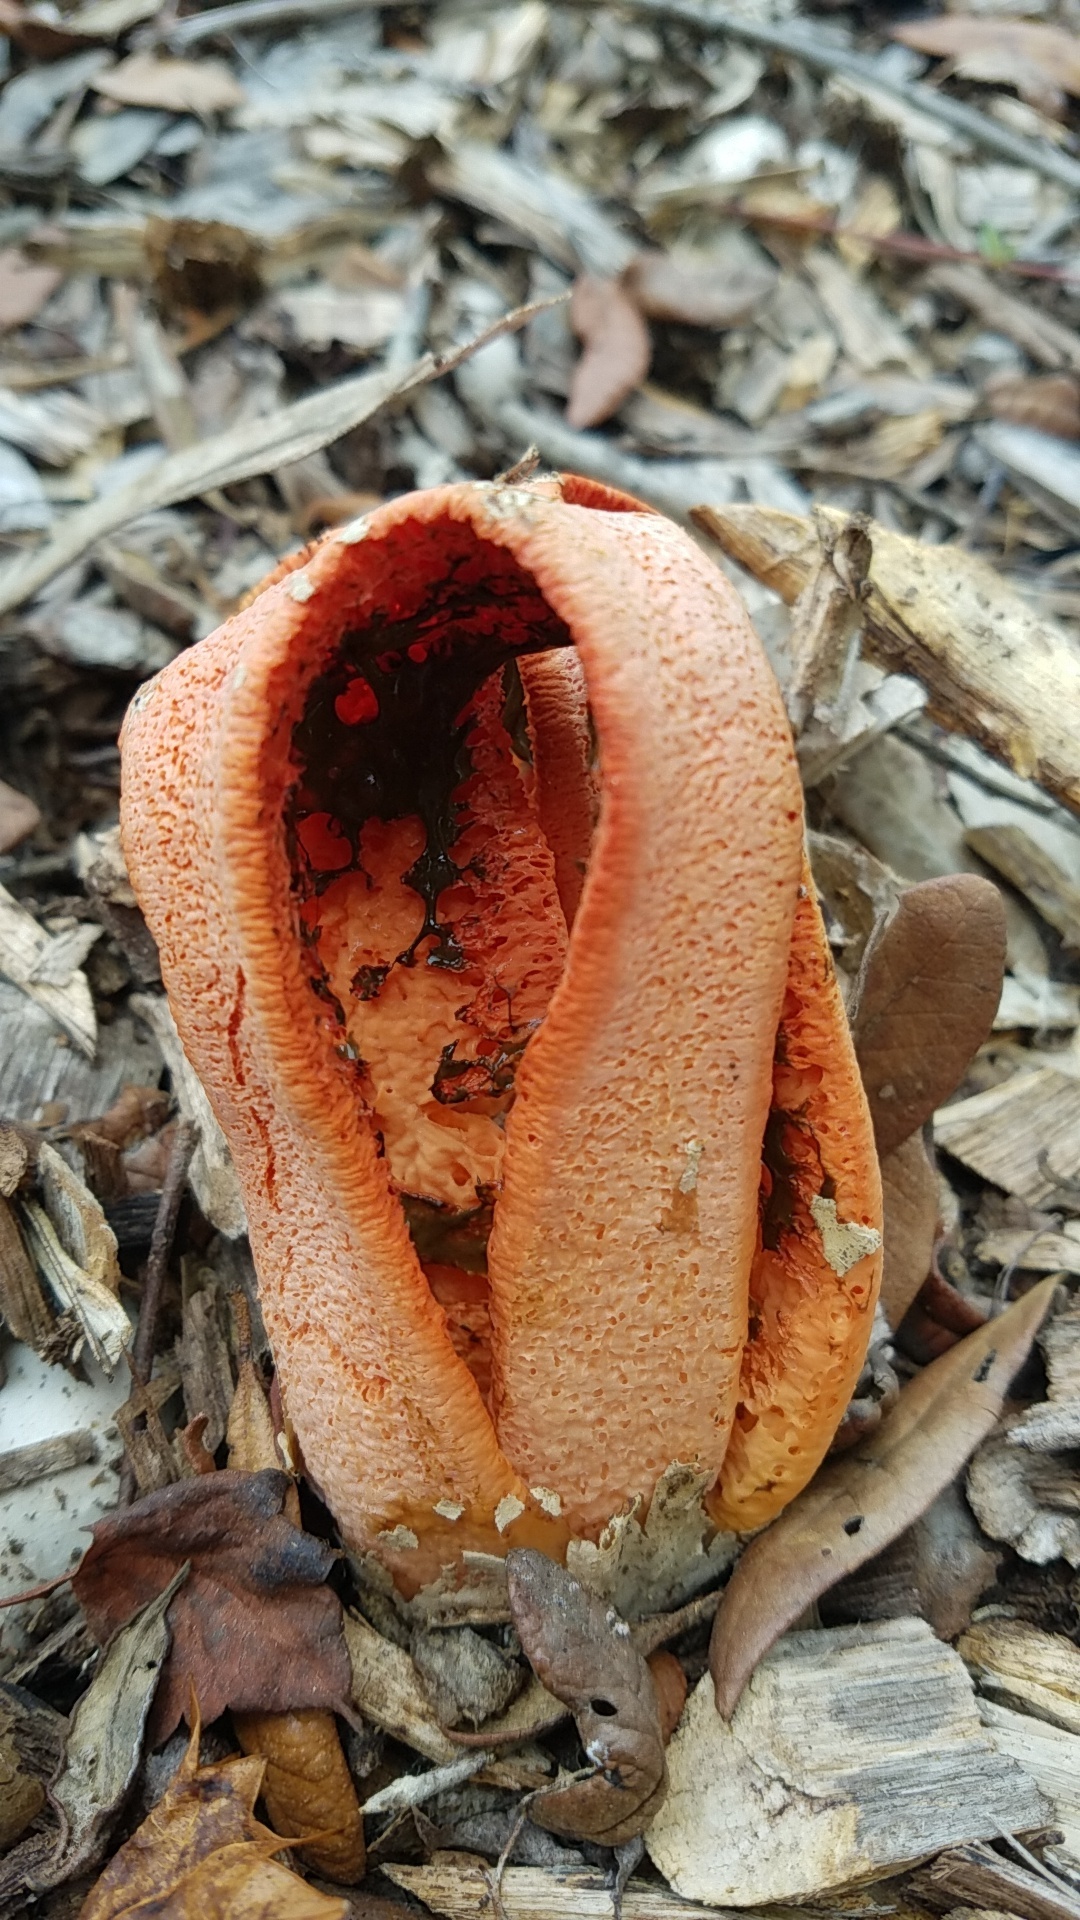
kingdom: Fungi
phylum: Basidiomycota
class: Agaricomycetes
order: Phallales
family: Phallaceae
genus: Clathrus
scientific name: Clathrus columnatus
